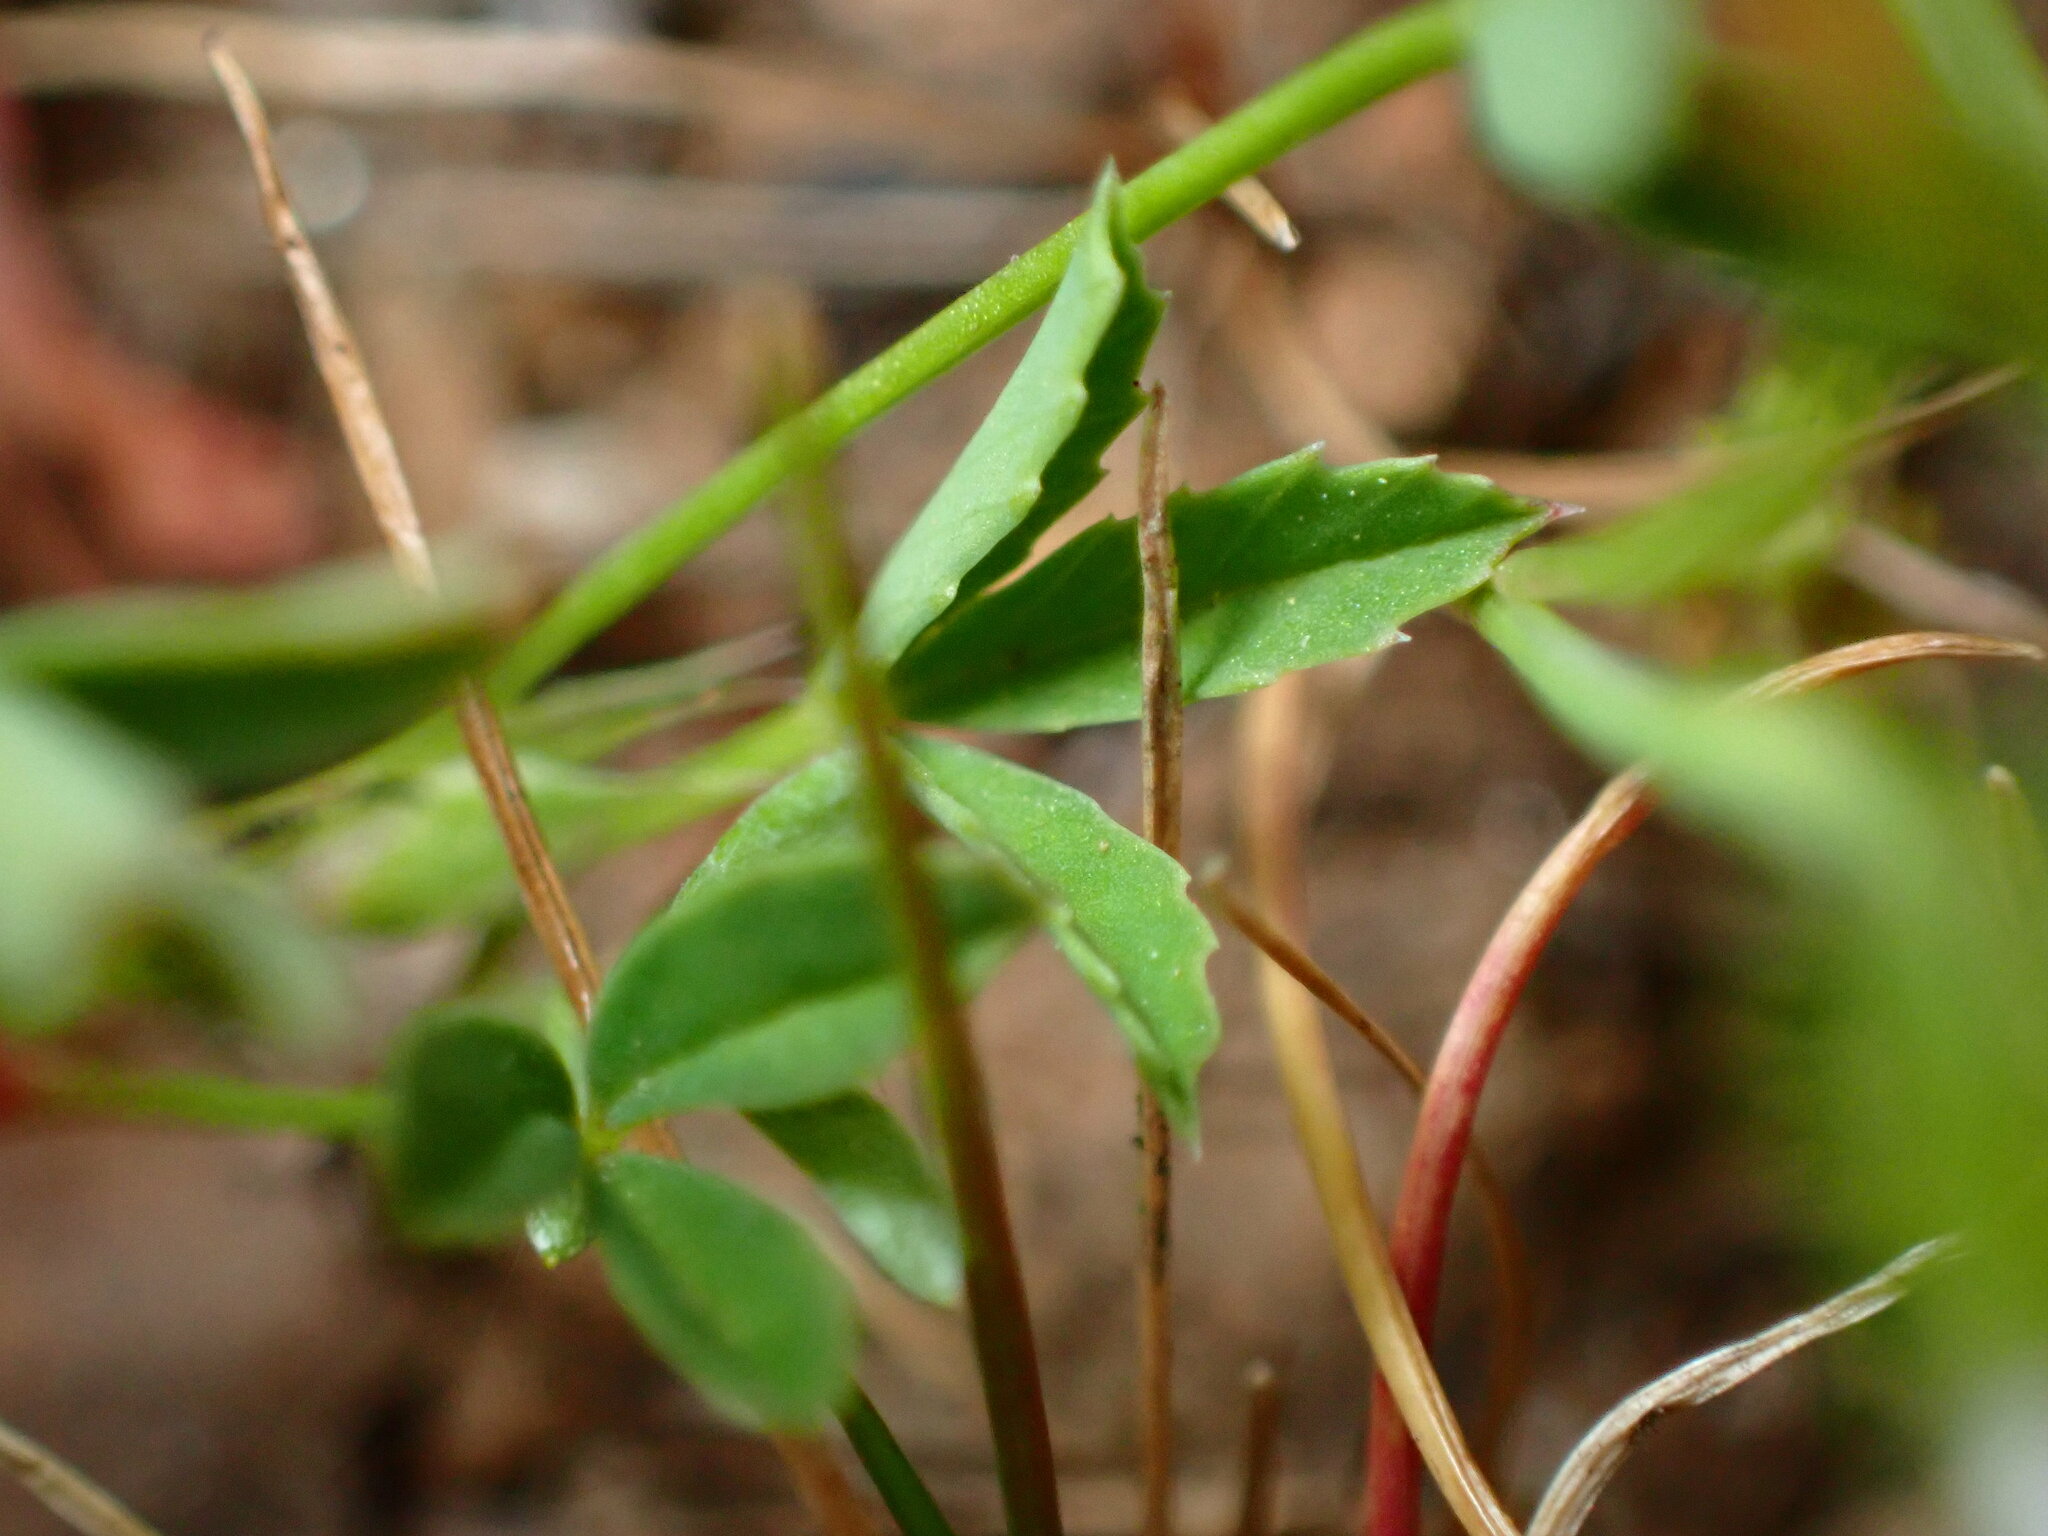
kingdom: Plantae
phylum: Tracheophyta
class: Magnoliopsida
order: Fabales
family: Fabaceae
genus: Trifolium
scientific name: Trifolium depauperatum
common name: Poverty clover
